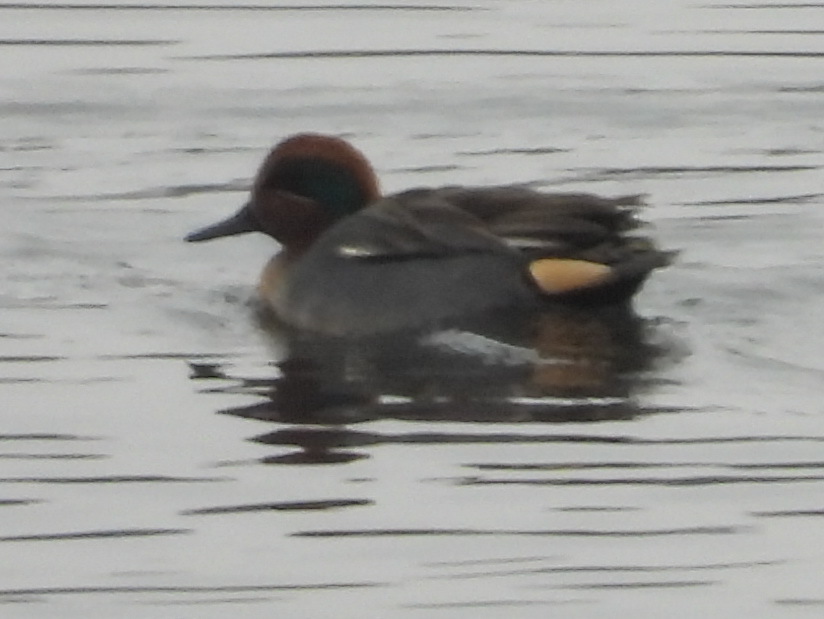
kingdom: Animalia
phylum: Chordata
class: Aves
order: Anseriformes
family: Anatidae
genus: Anas
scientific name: Anas crecca
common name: Eurasian teal
